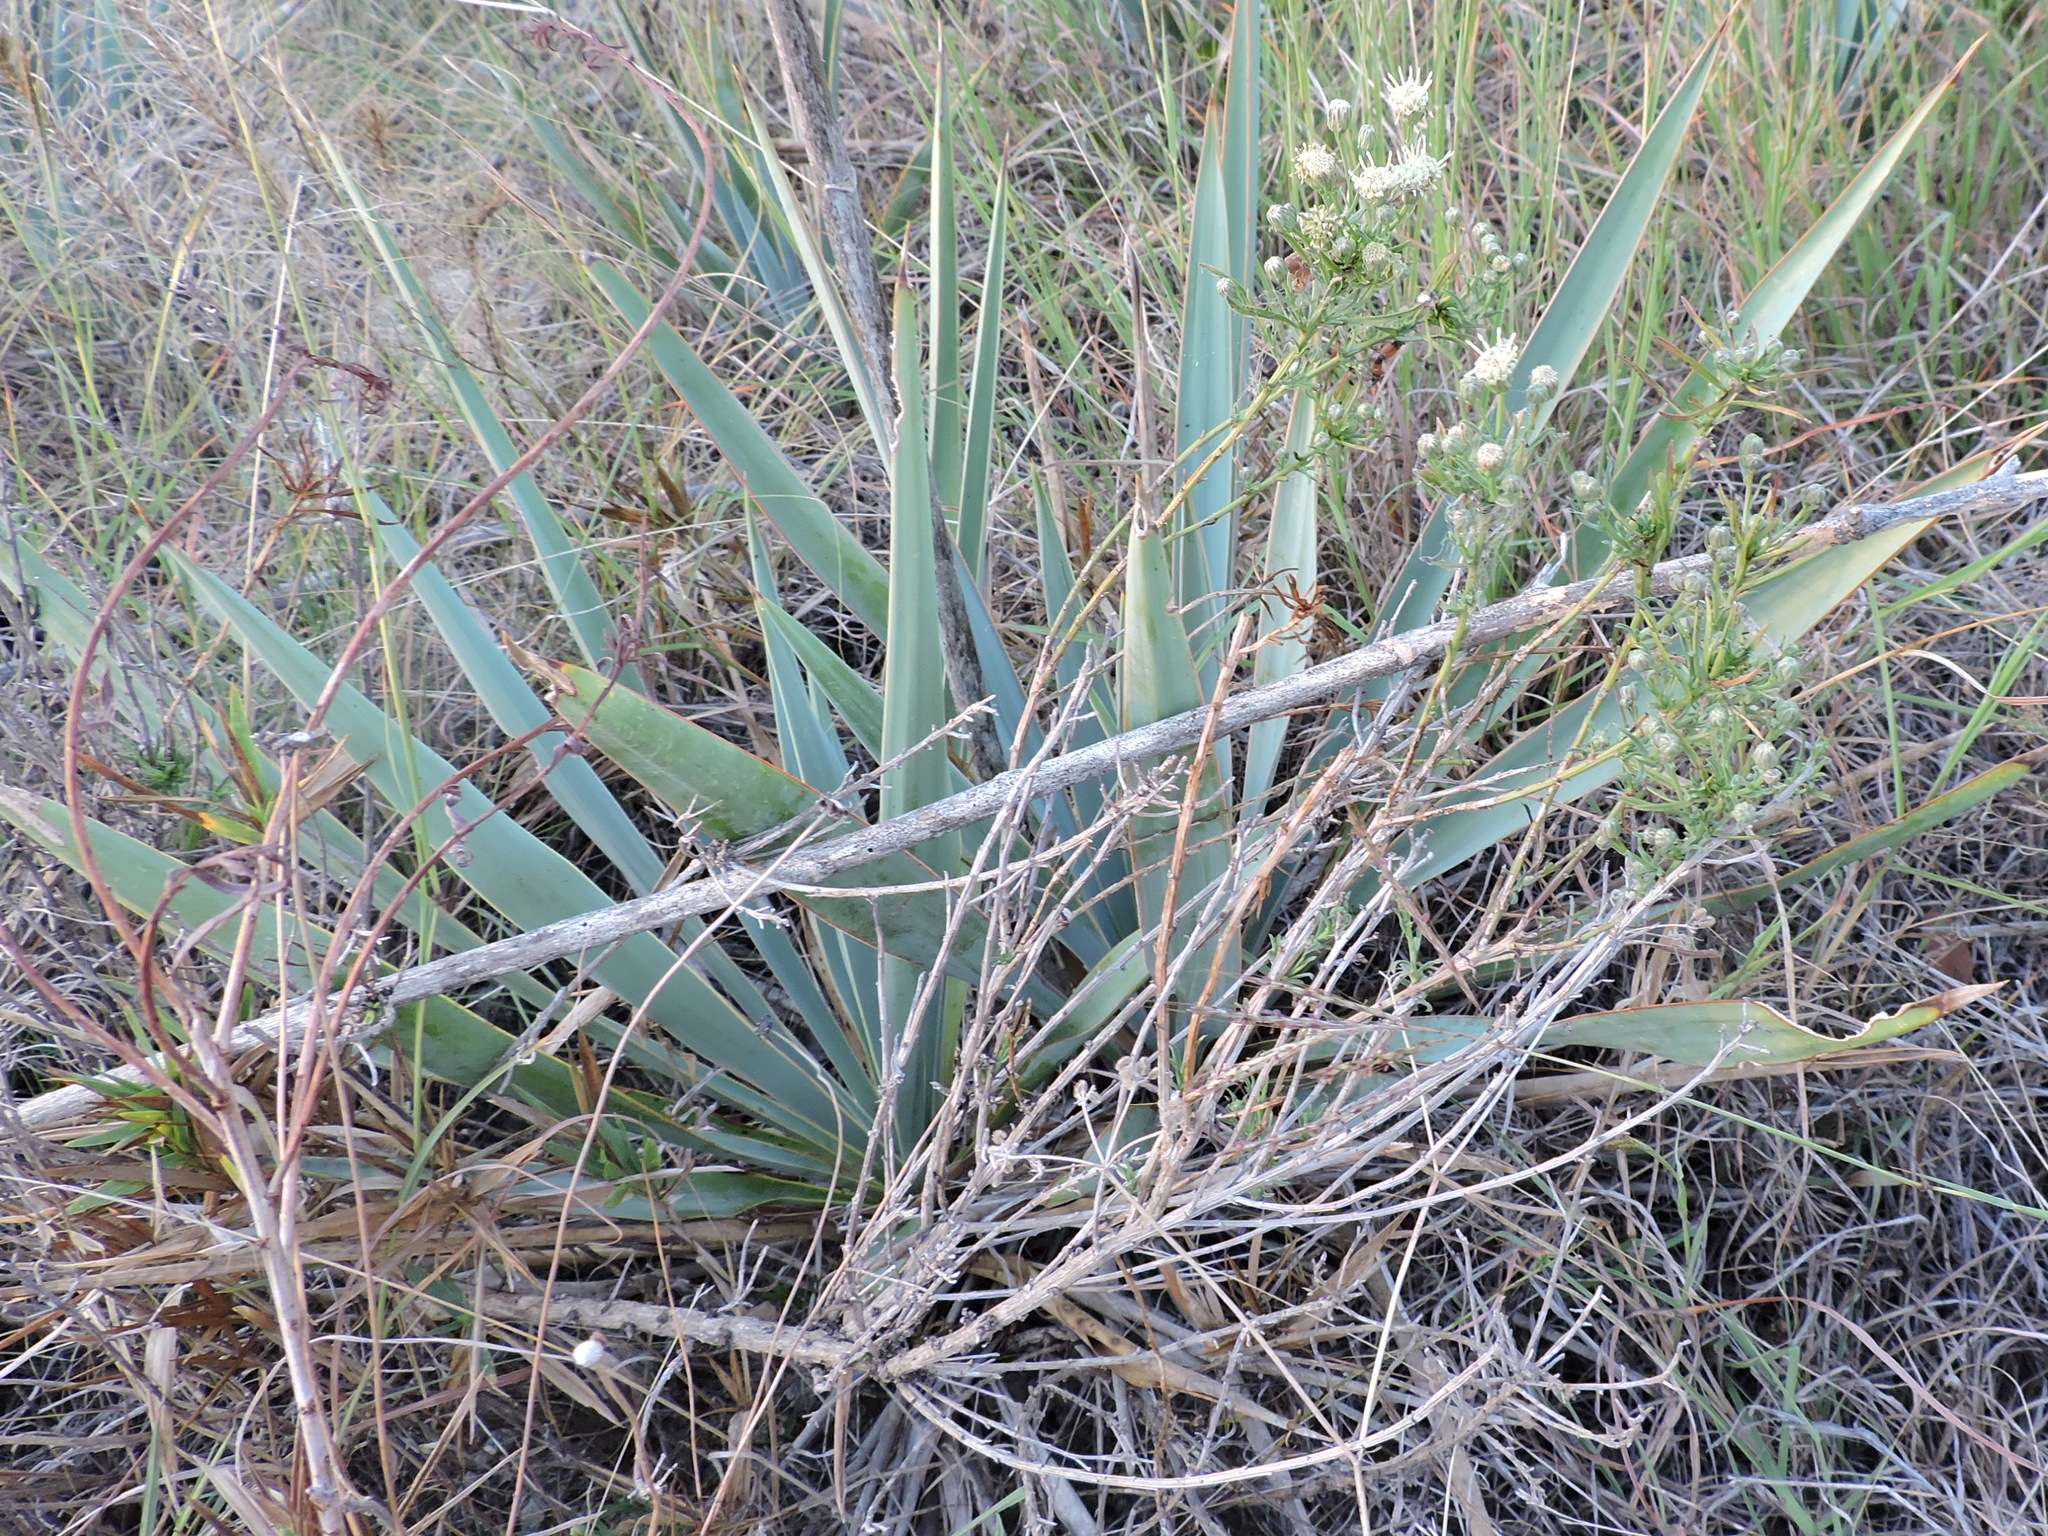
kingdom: Plantae
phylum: Tracheophyta
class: Magnoliopsida
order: Asterales
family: Asteraceae
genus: Baccharis
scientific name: Baccharis texana
